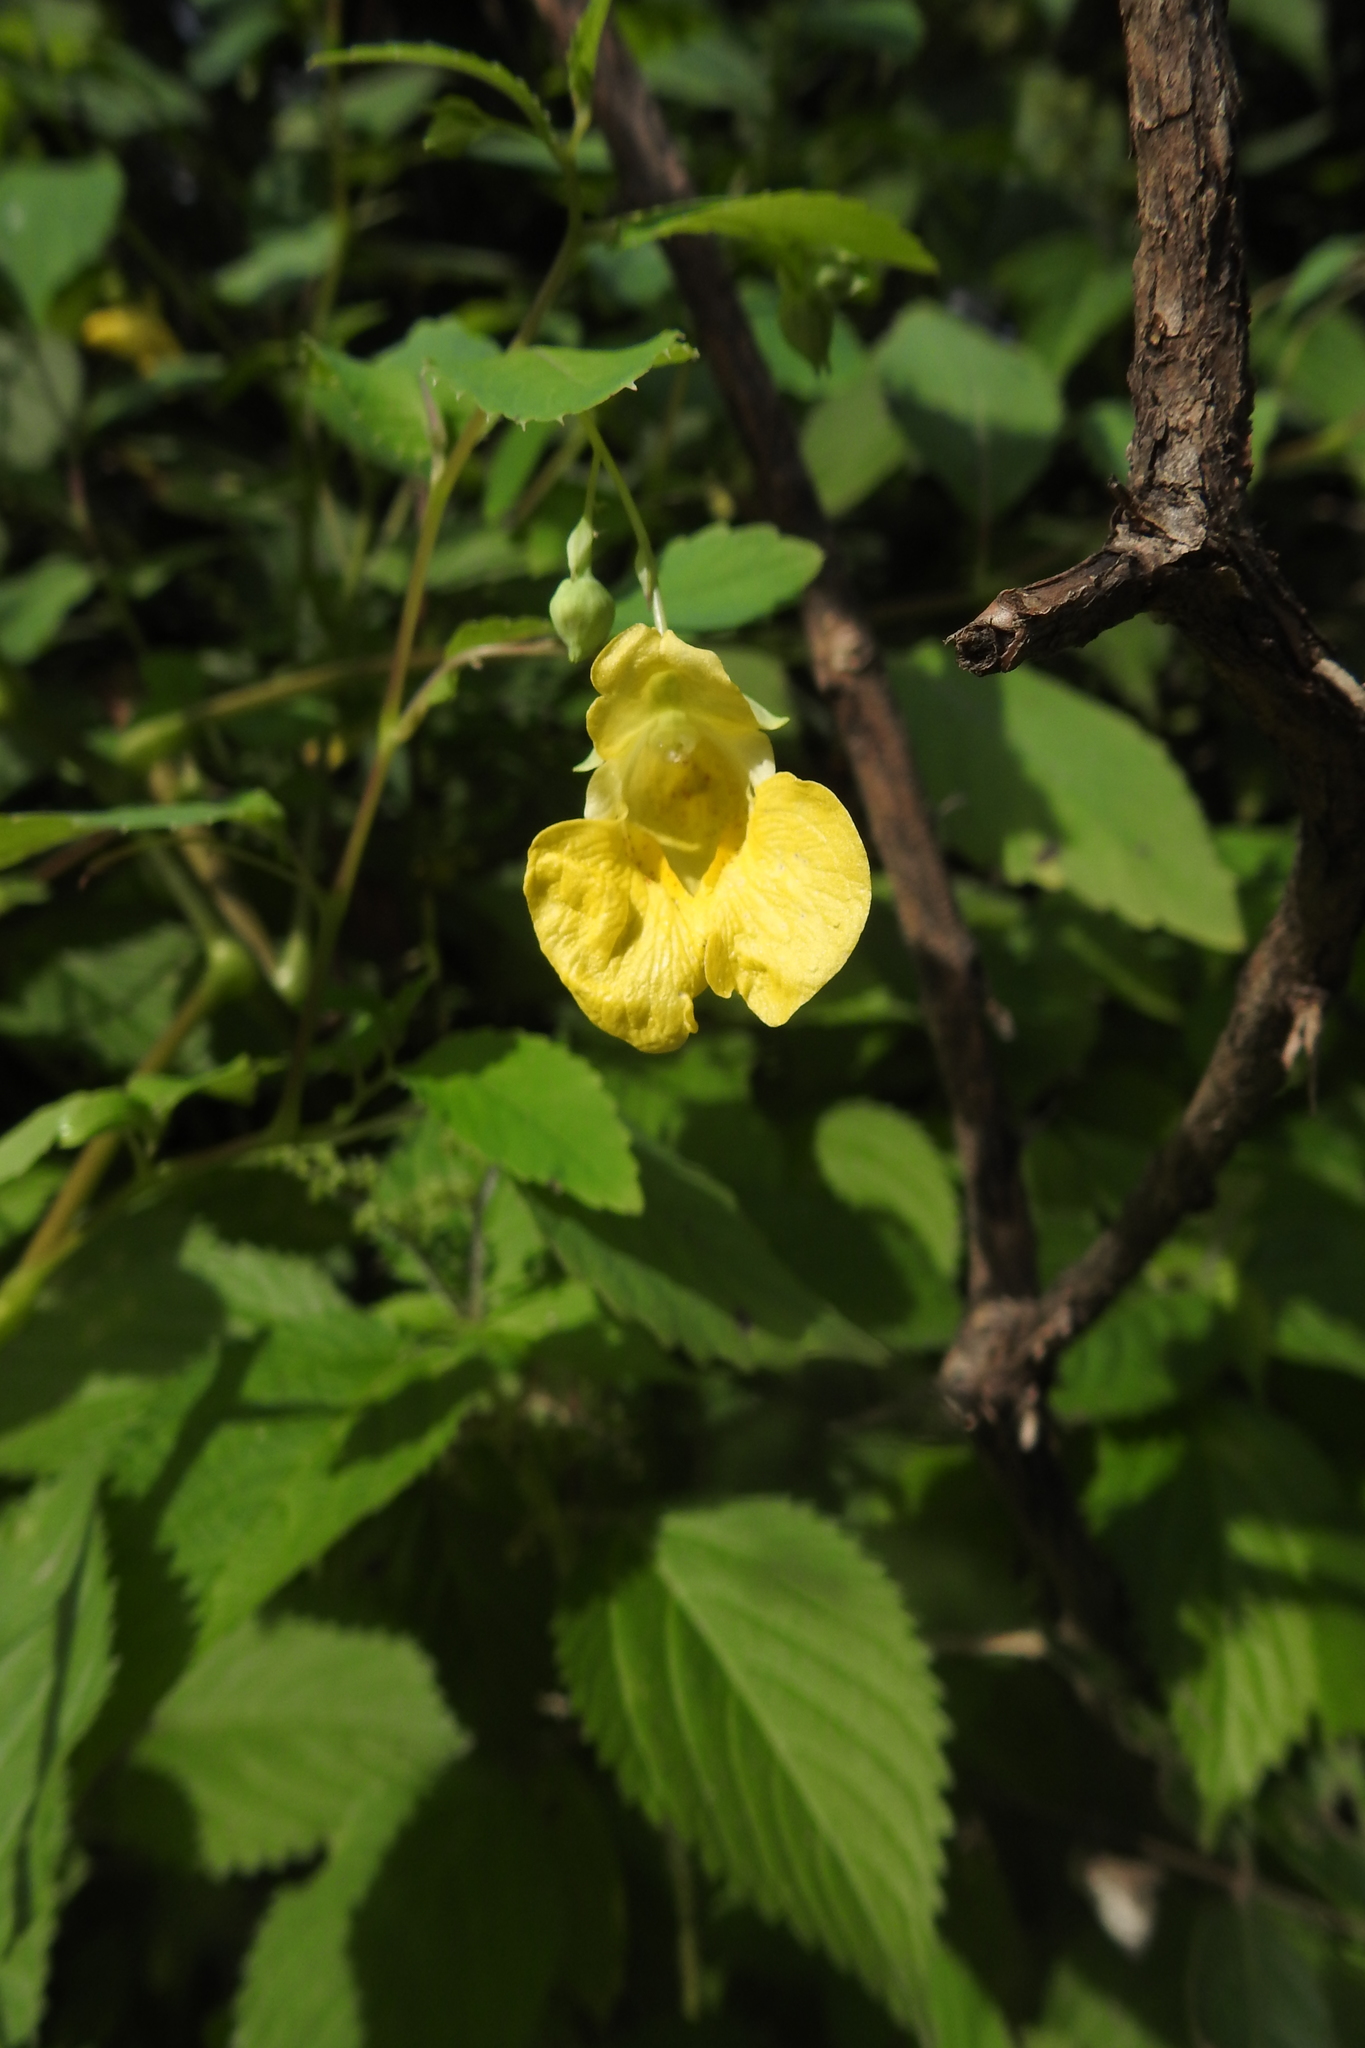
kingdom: Plantae
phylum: Tracheophyta
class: Magnoliopsida
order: Ericales
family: Balsaminaceae
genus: Impatiens
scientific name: Impatiens pallida
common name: Pale snapweed
